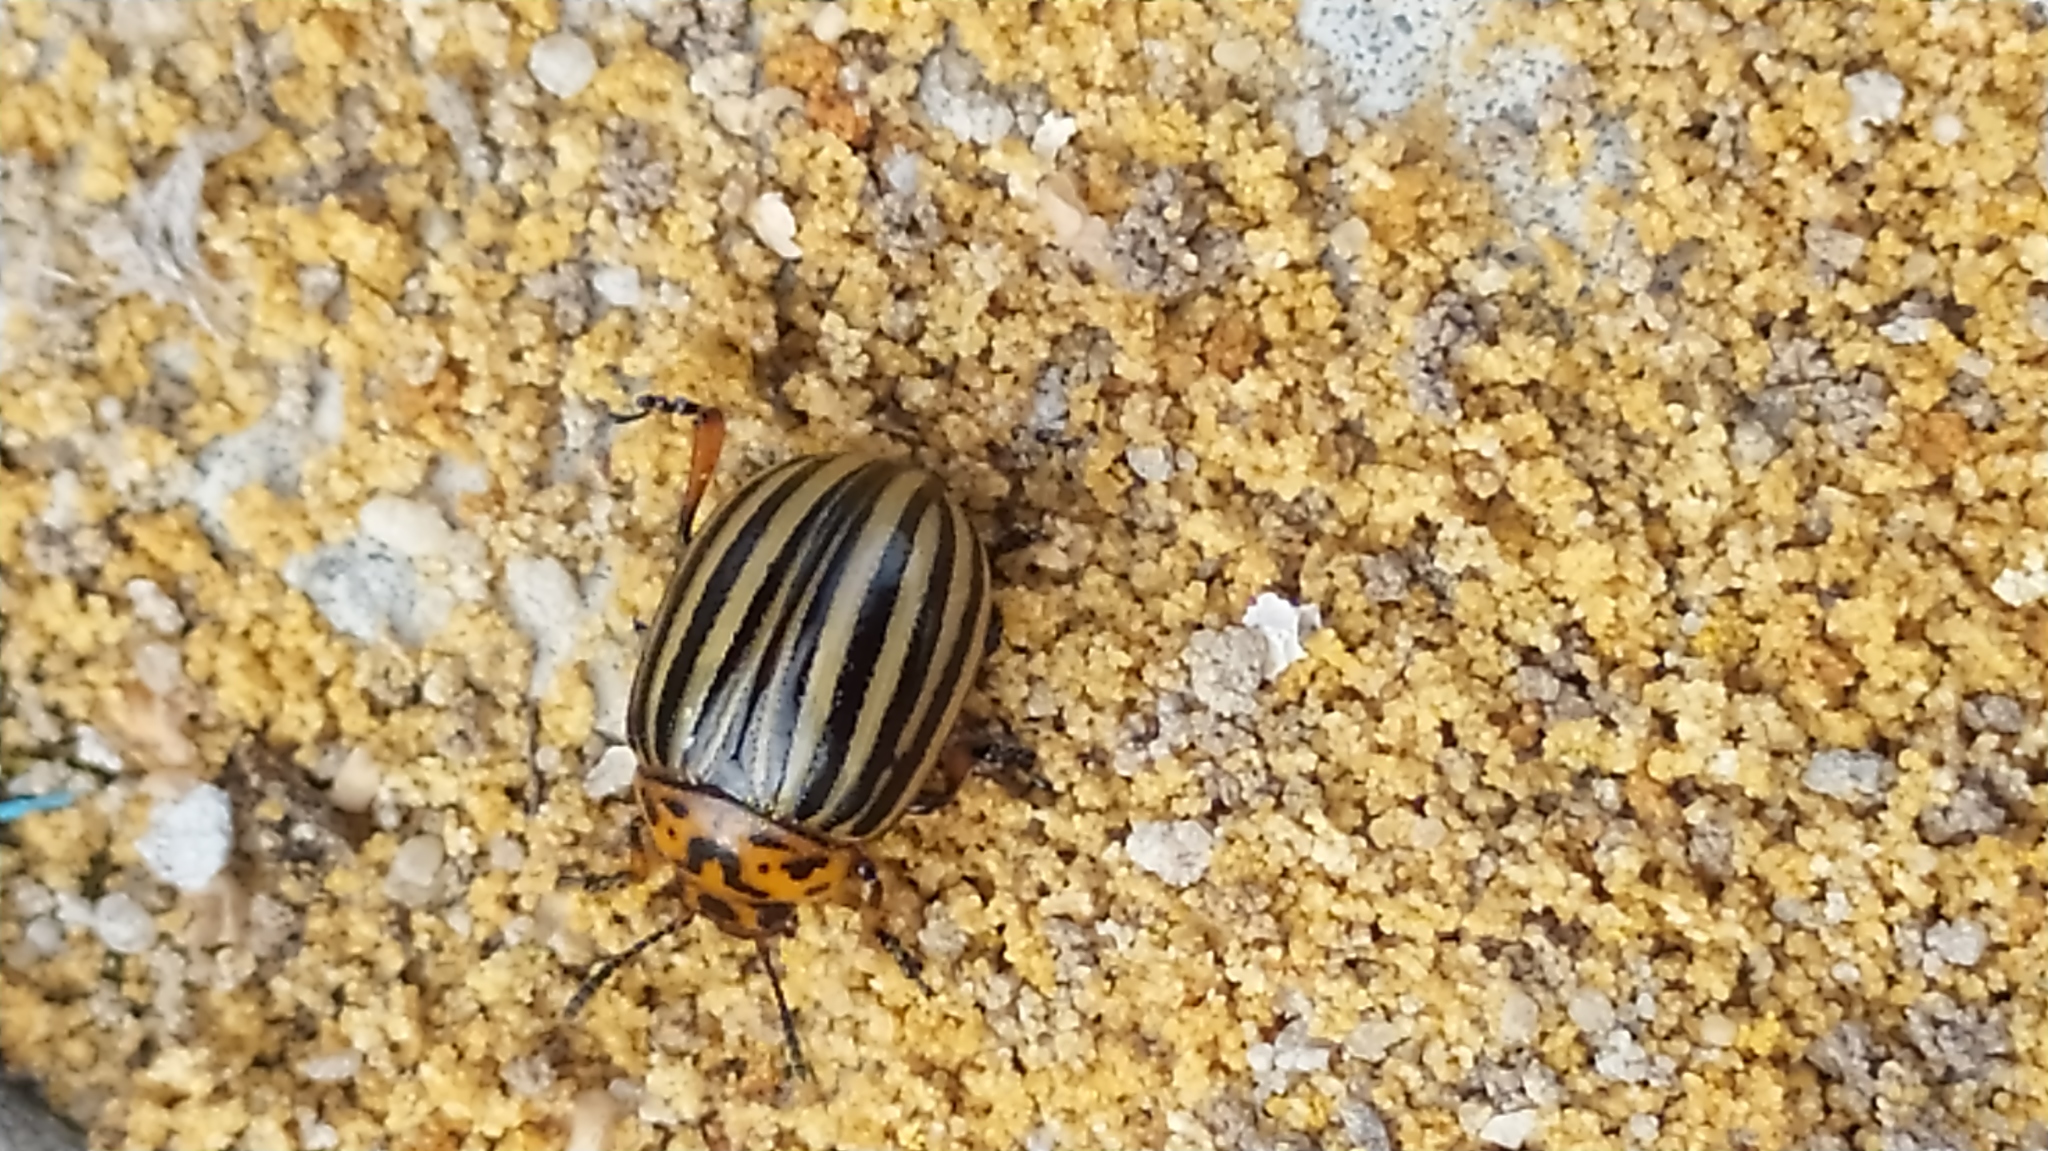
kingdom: Animalia
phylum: Arthropoda
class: Insecta
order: Coleoptera
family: Chrysomelidae
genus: Leptinotarsa
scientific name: Leptinotarsa decemlineata
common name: Colorado potato beetle
